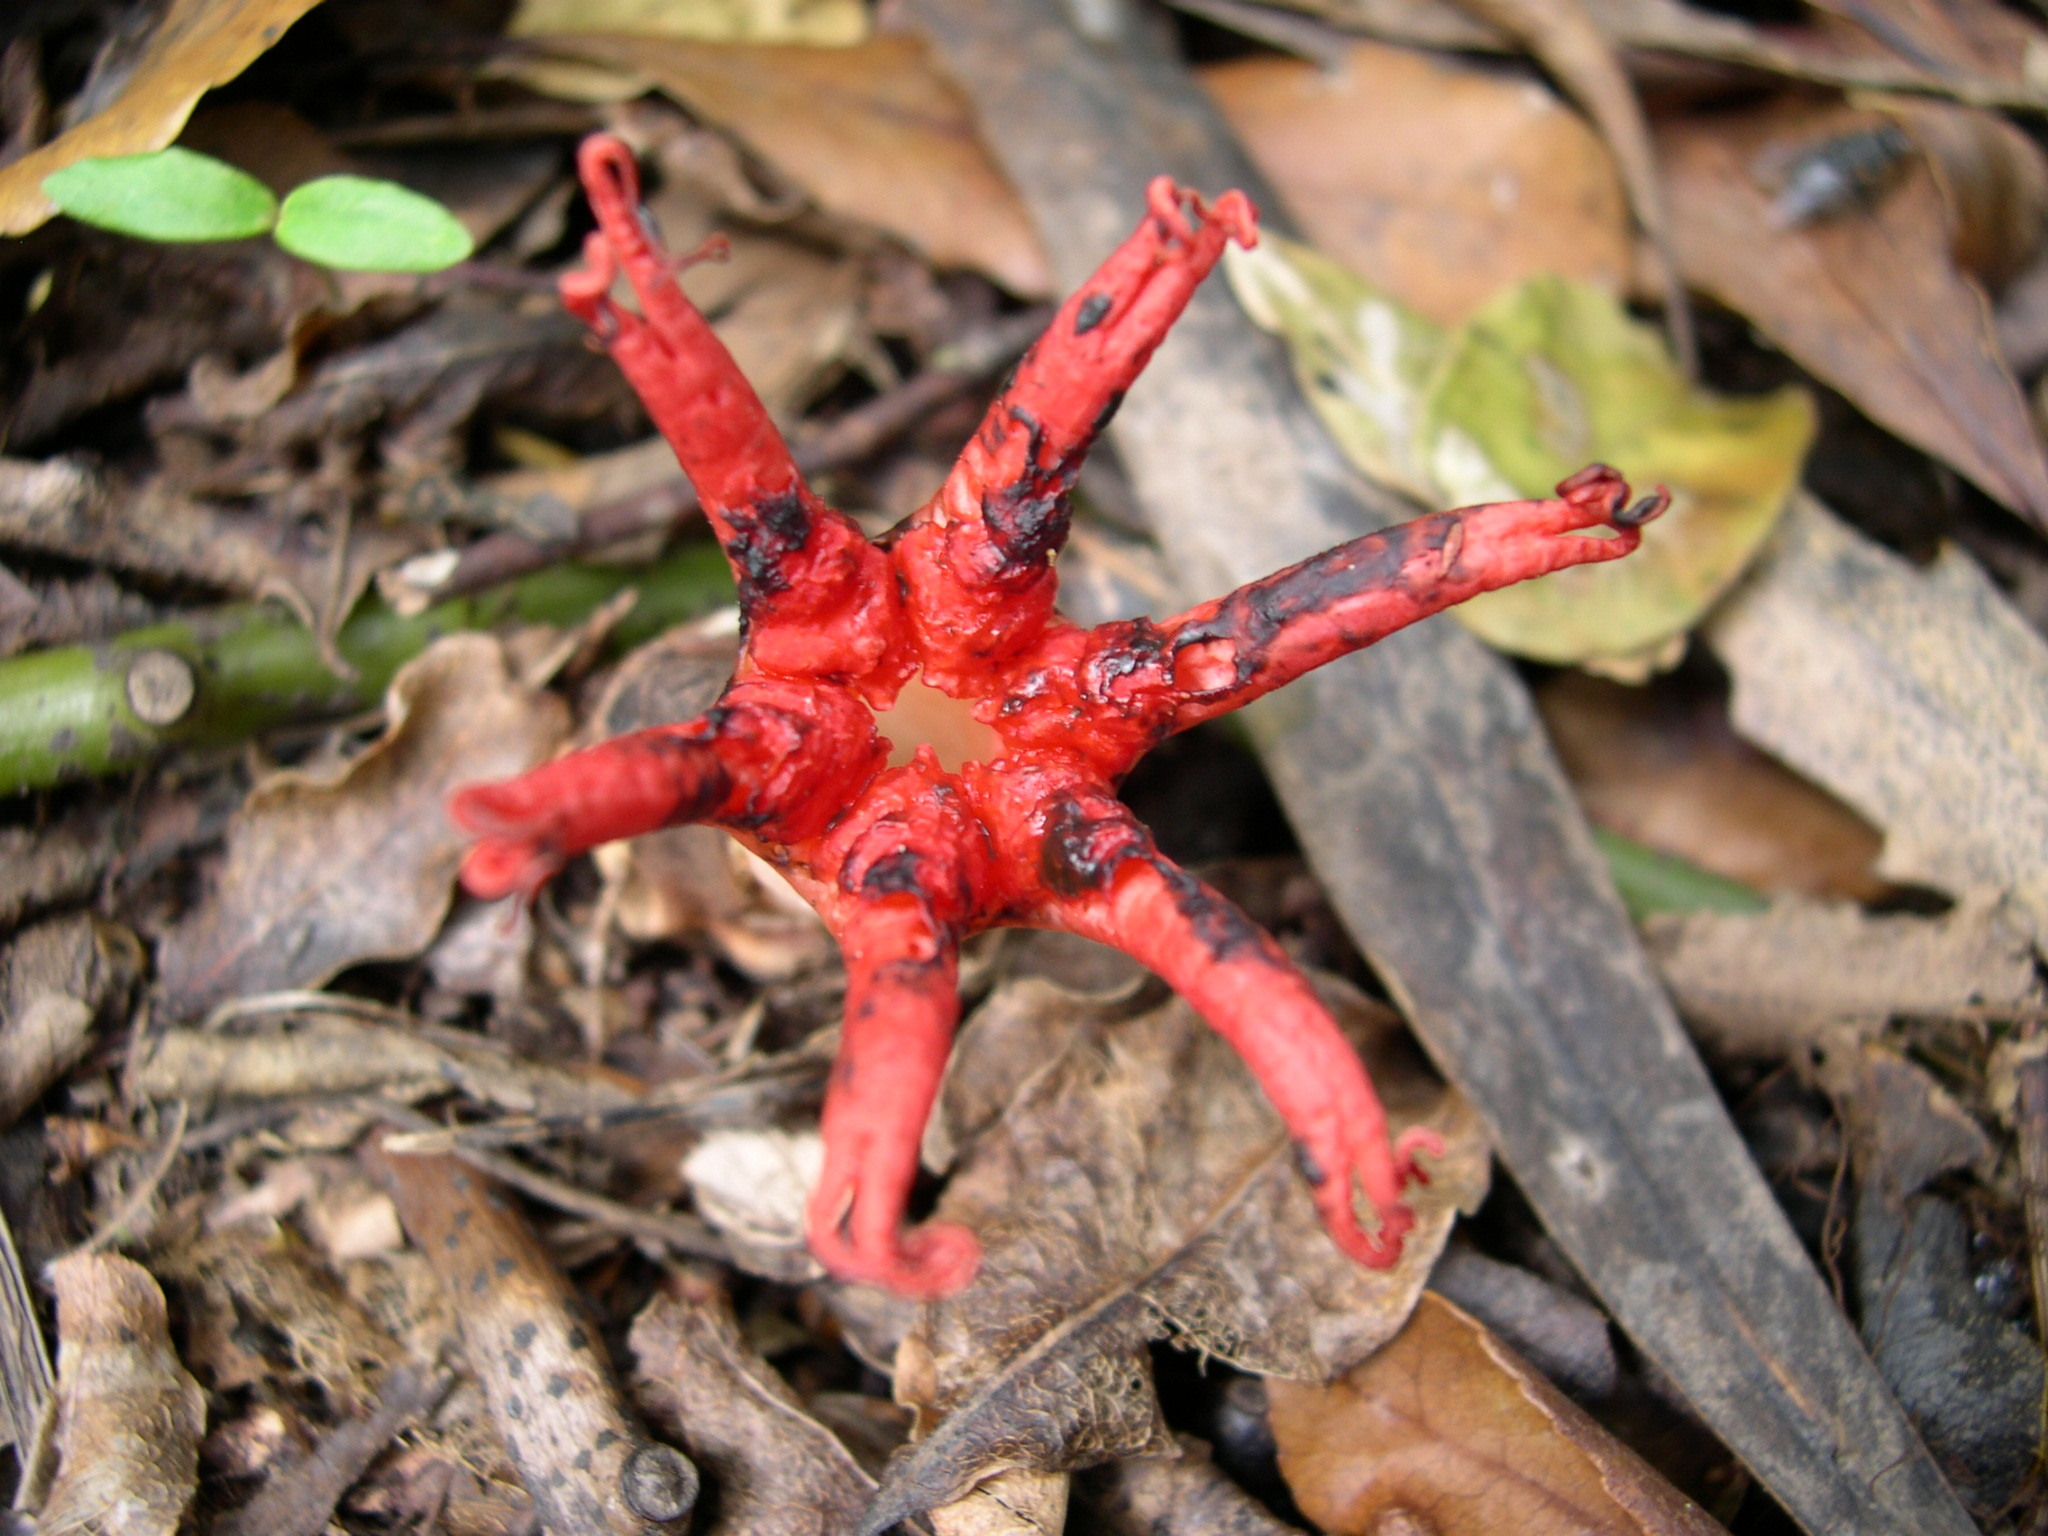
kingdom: Fungi
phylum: Basidiomycota
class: Agaricomycetes
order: Phallales
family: Phallaceae
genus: Aseroe
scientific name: Aseroe rubra
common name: Starfish fungus
